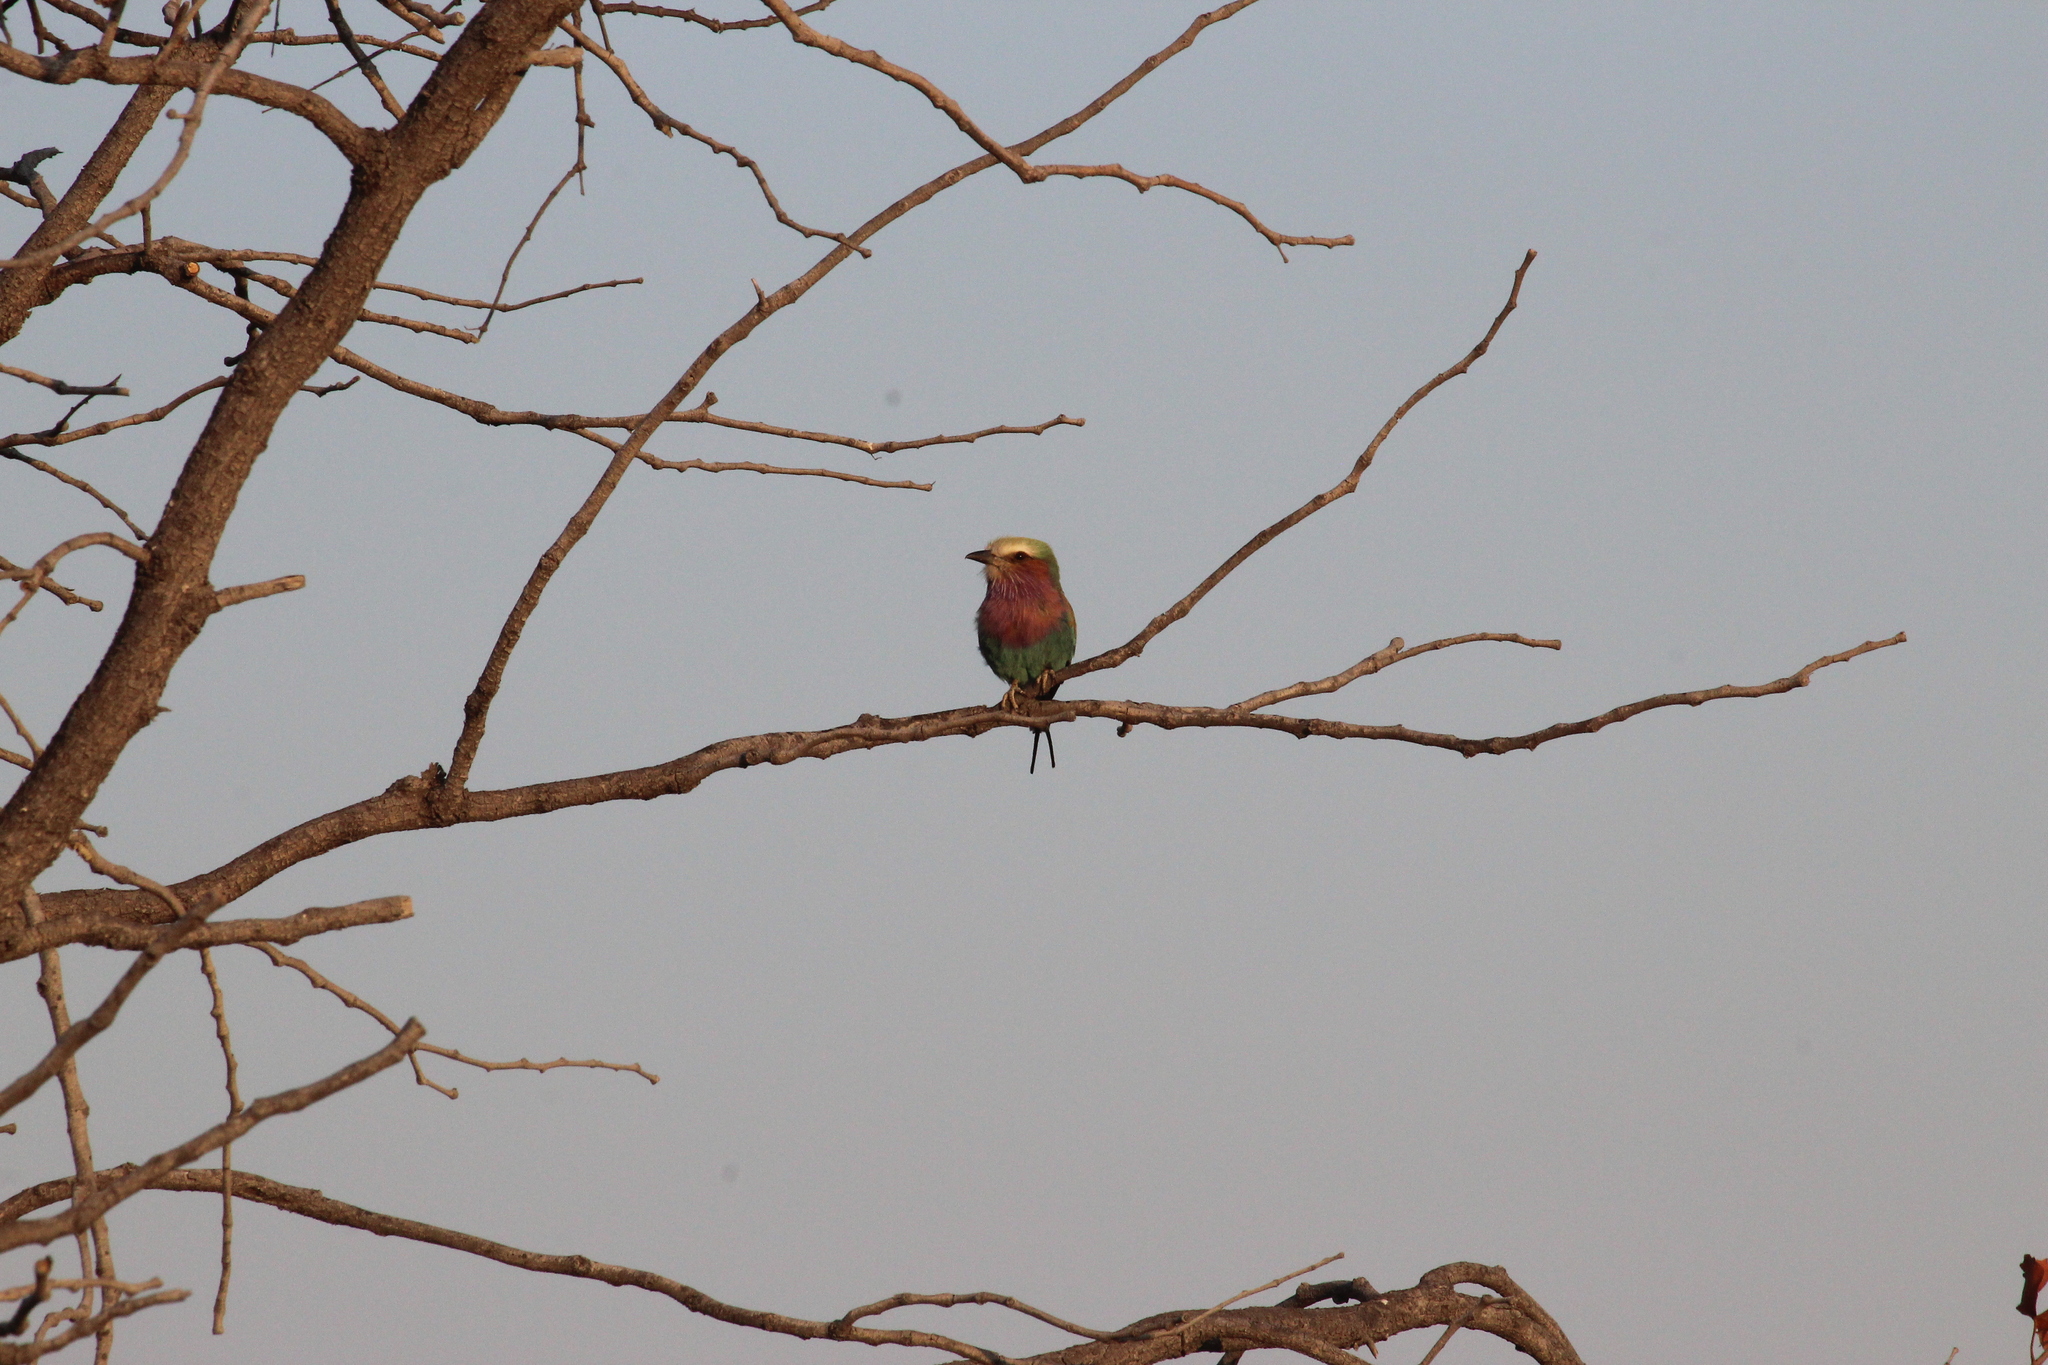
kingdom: Animalia
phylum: Chordata
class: Aves
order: Coraciiformes
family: Coraciidae
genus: Coracias
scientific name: Coracias caudatus
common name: Lilac-breasted roller
